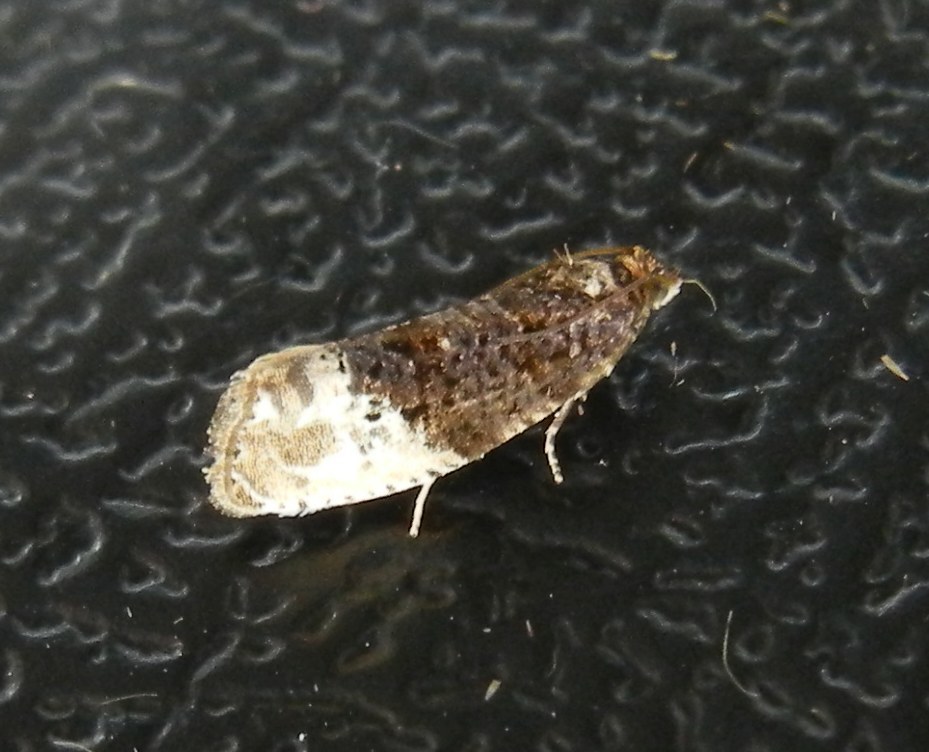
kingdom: Animalia
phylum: Arthropoda
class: Insecta
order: Lepidoptera
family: Tortricidae
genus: Hedya
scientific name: Hedya nubiferana
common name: Marbled orchard tortrix
